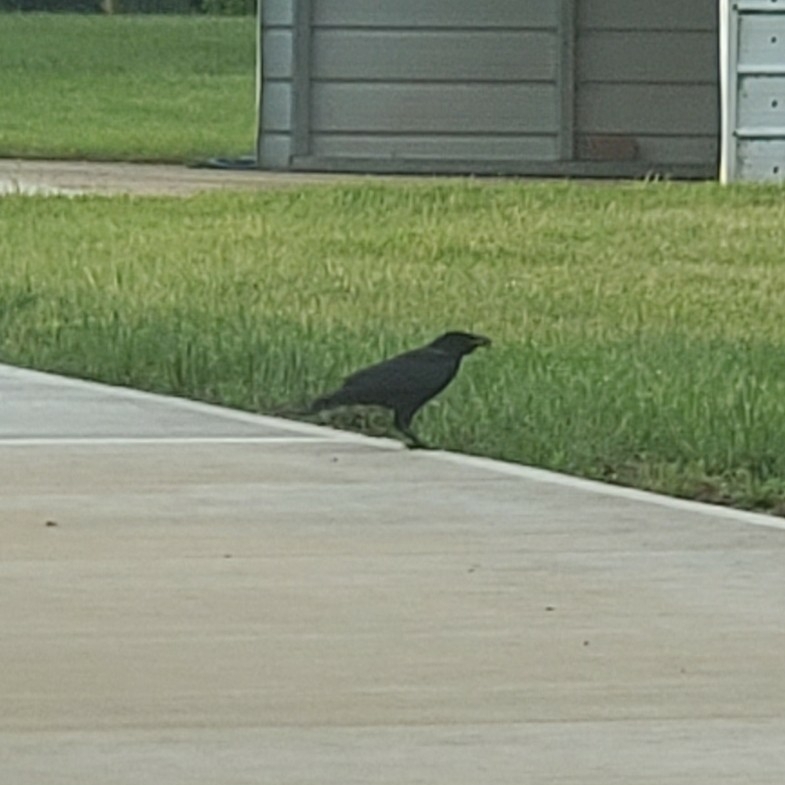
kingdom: Animalia
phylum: Chordata
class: Aves
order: Passeriformes
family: Corvidae
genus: Corvus
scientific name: Corvus brachyrhynchos
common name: American crow
